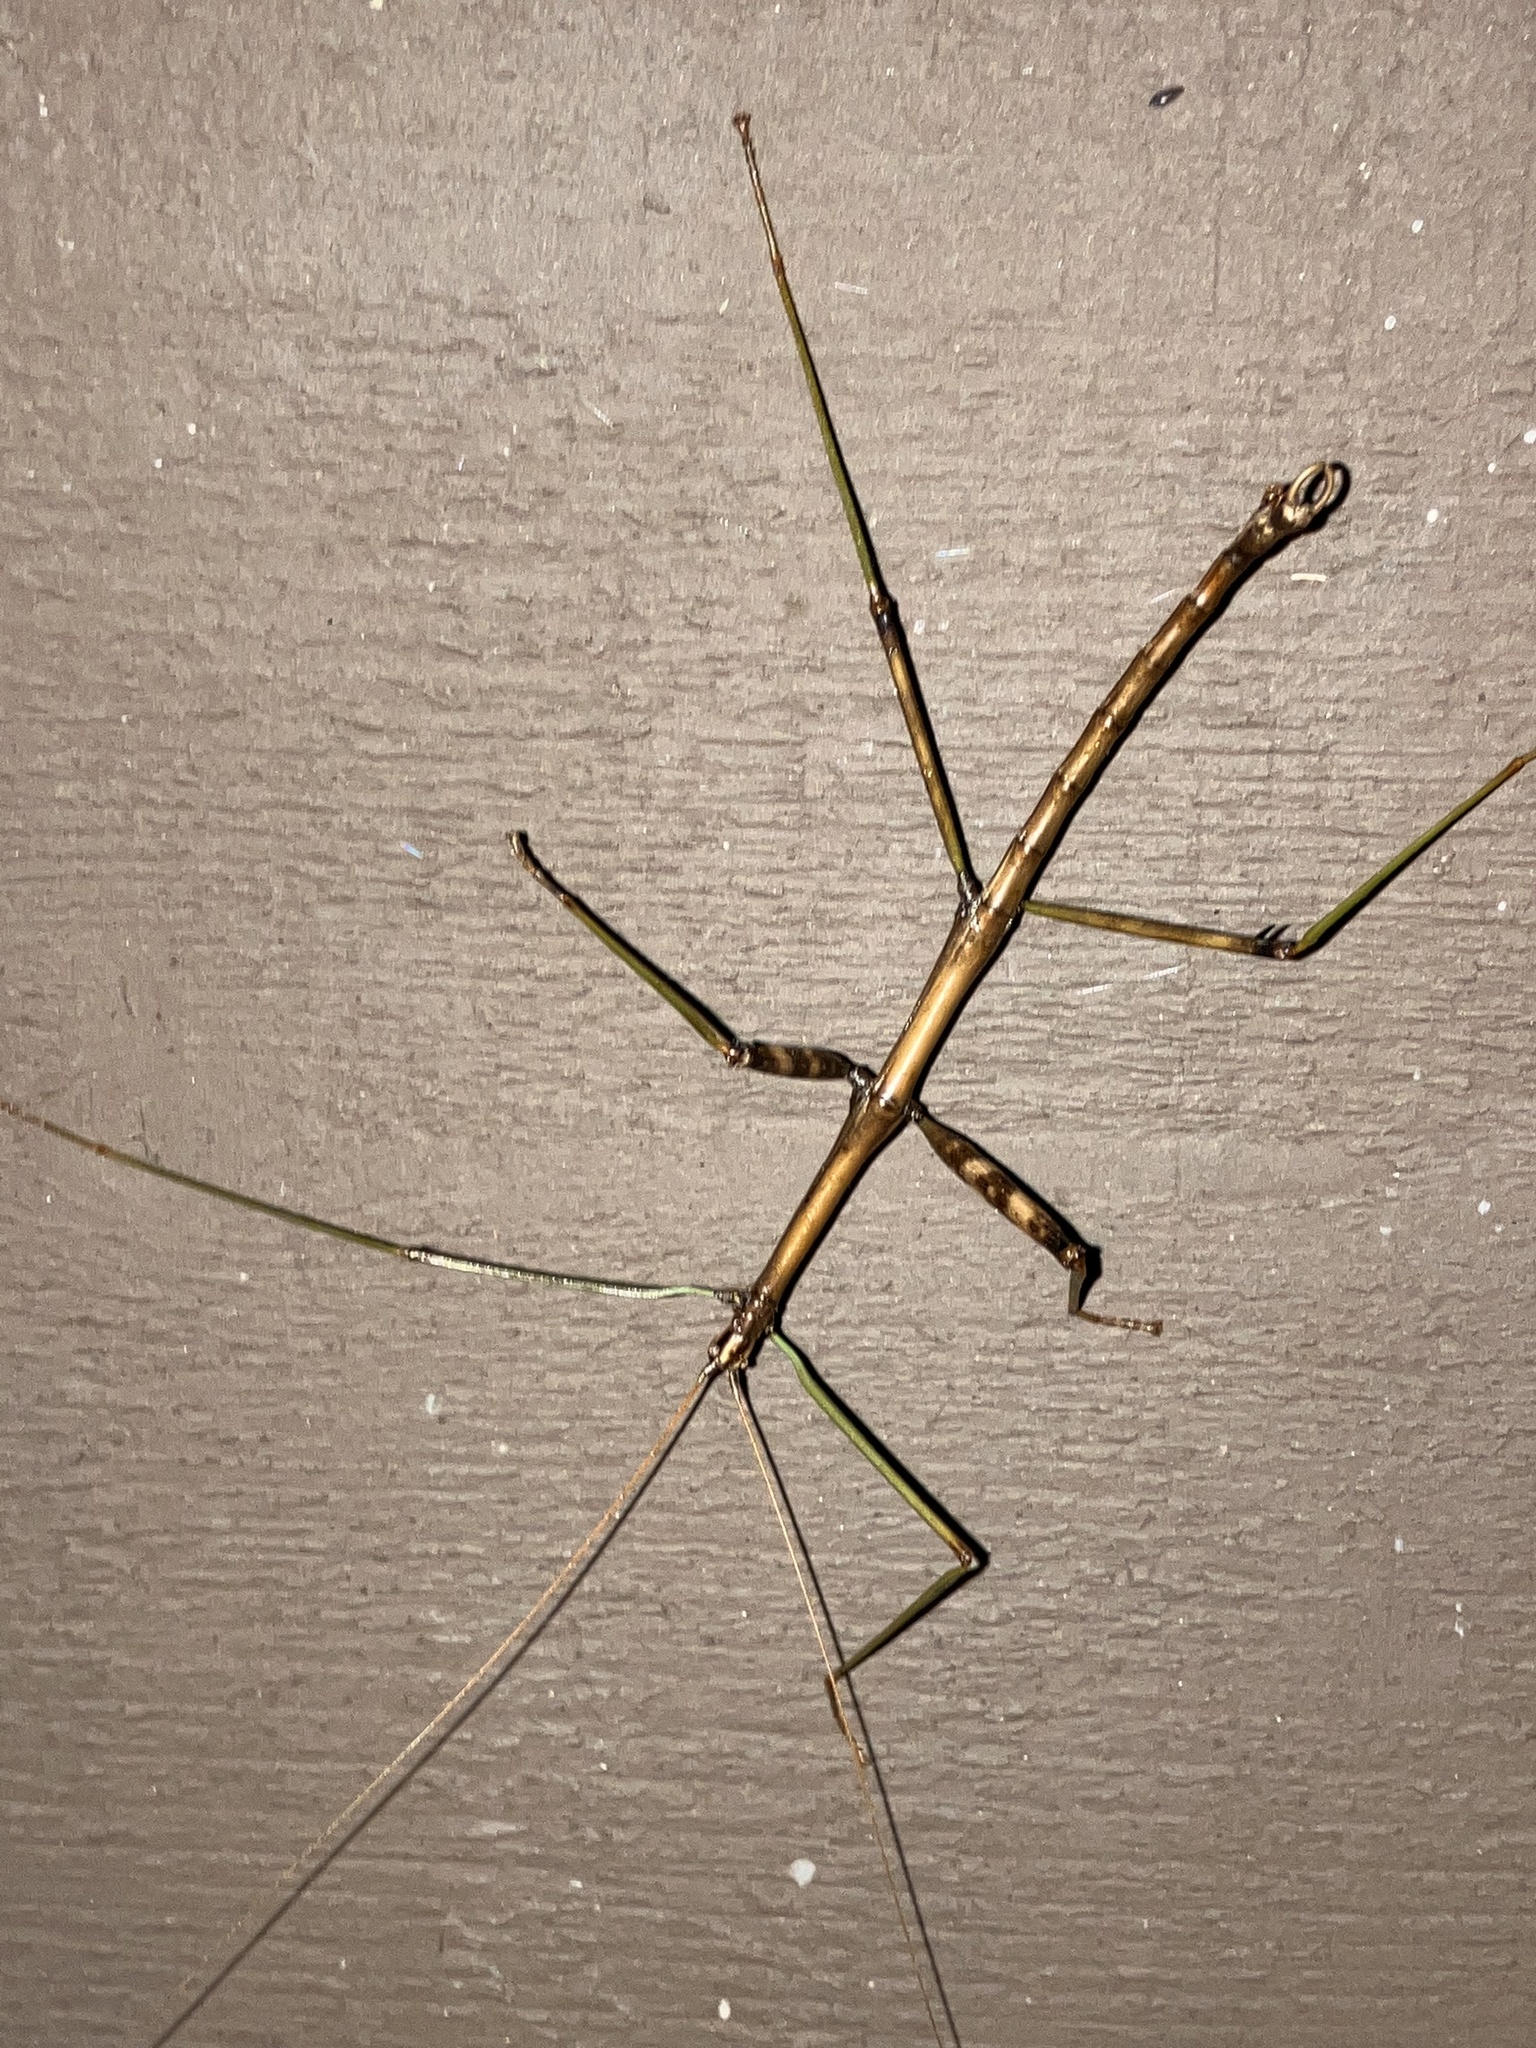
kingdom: Animalia
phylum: Arthropoda
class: Insecta
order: Phasmida
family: Diapheromeridae
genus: Diapheromera
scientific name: Diapheromera femorata
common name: Common american walkingstick
